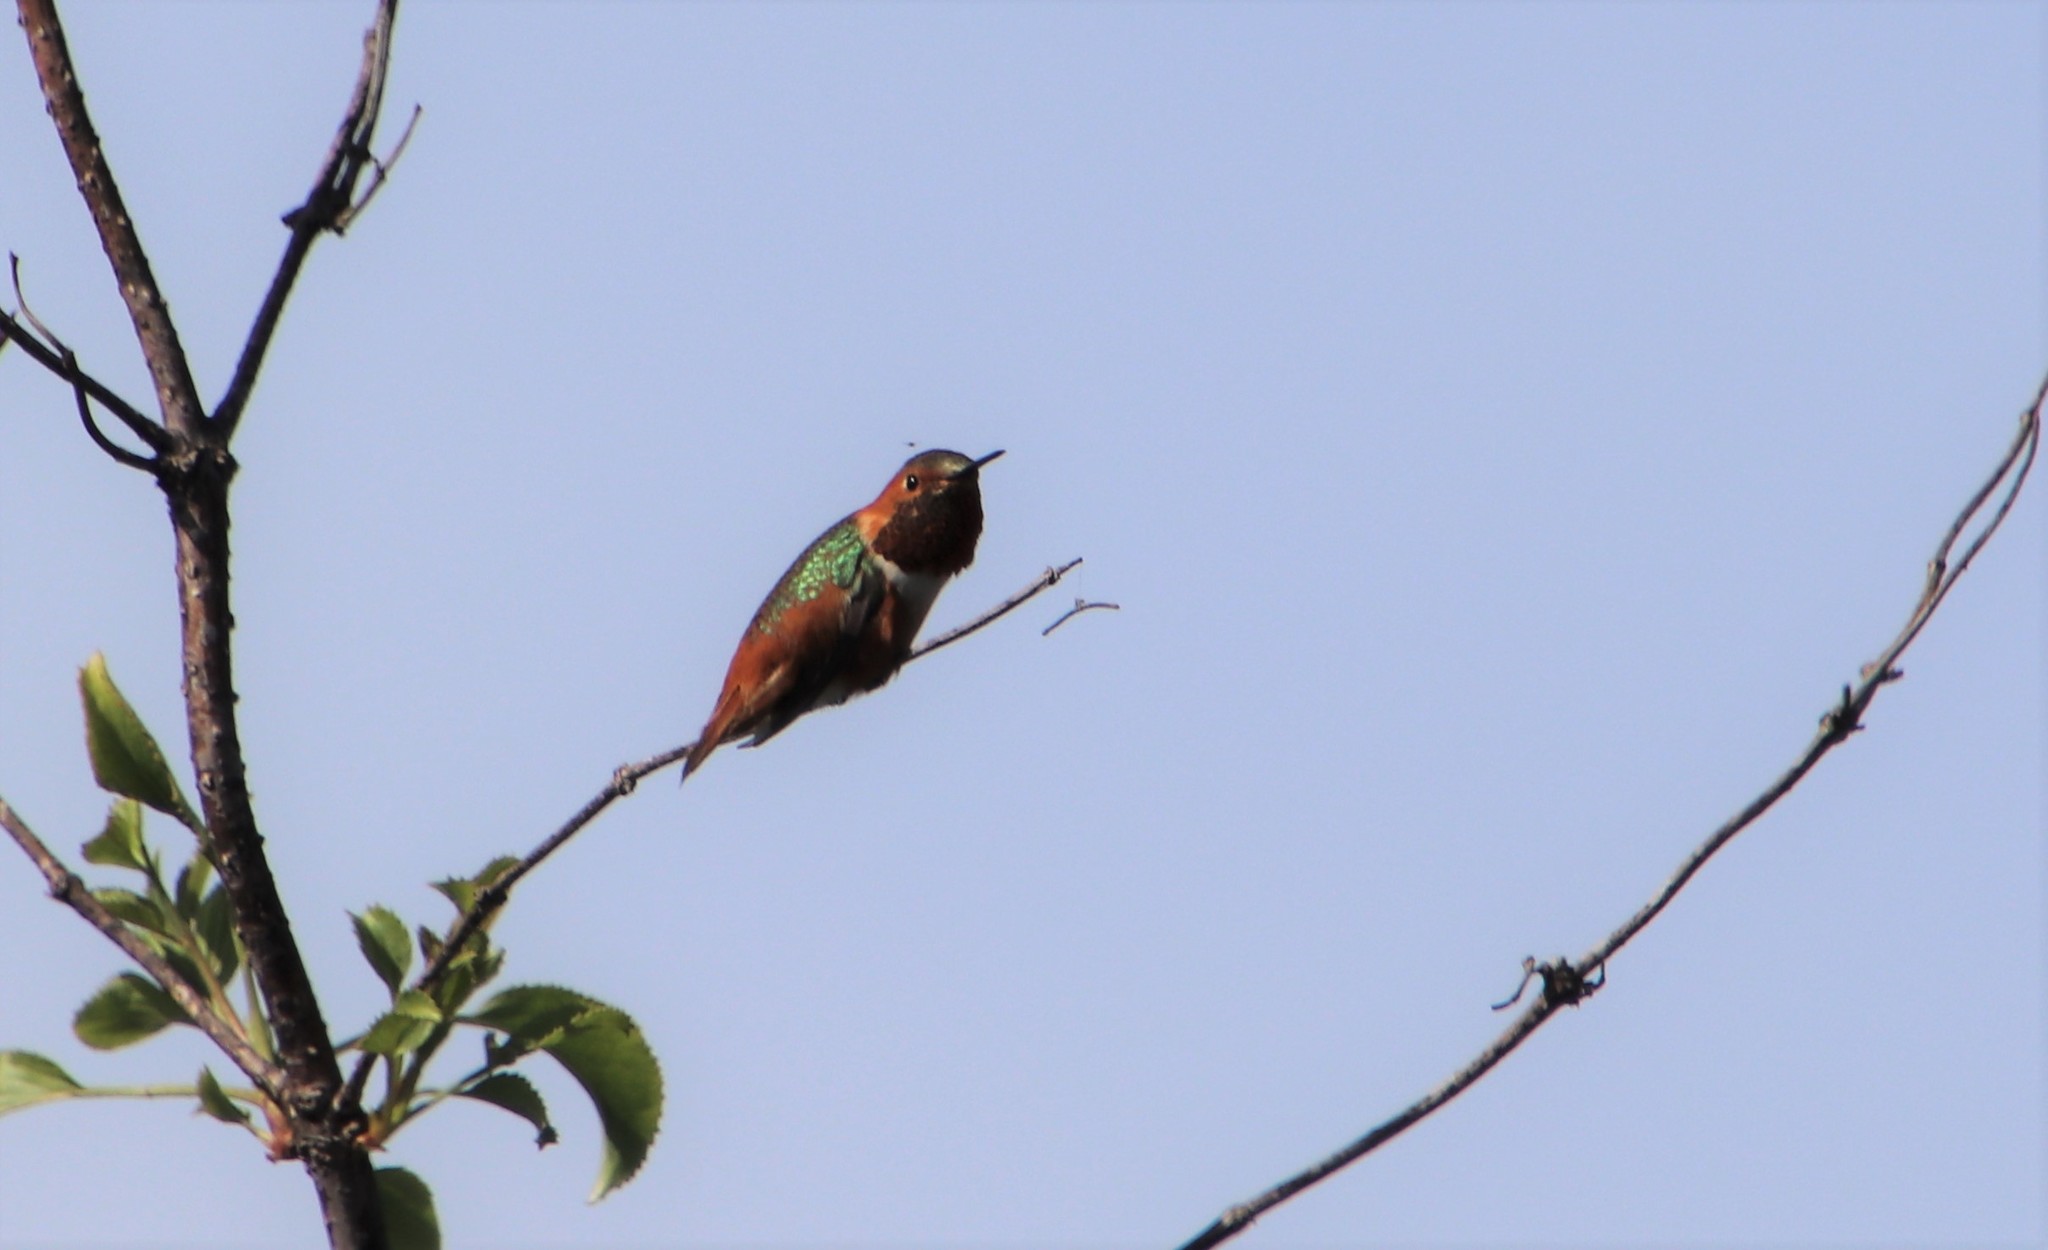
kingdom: Animalia
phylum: Chordata
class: Aves
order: Apodiformes
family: Trochilidae
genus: Selasphorus
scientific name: Selasphorus
